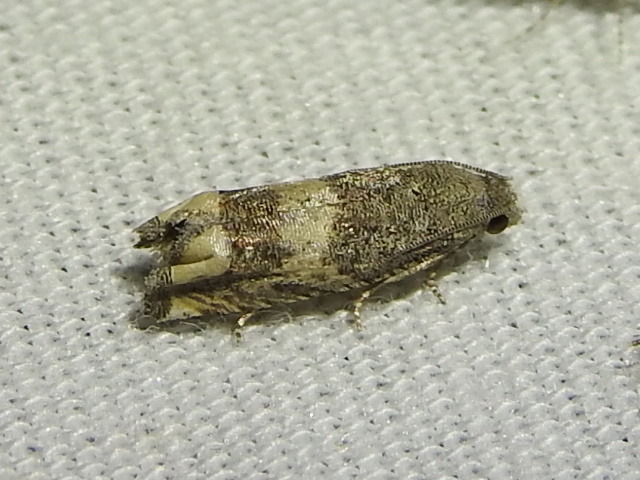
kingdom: Animalia
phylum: Arthropoda
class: Insecta
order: Lepidoptera
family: Tortricidae
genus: Epiblema
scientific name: Epiblema luctuosissima
